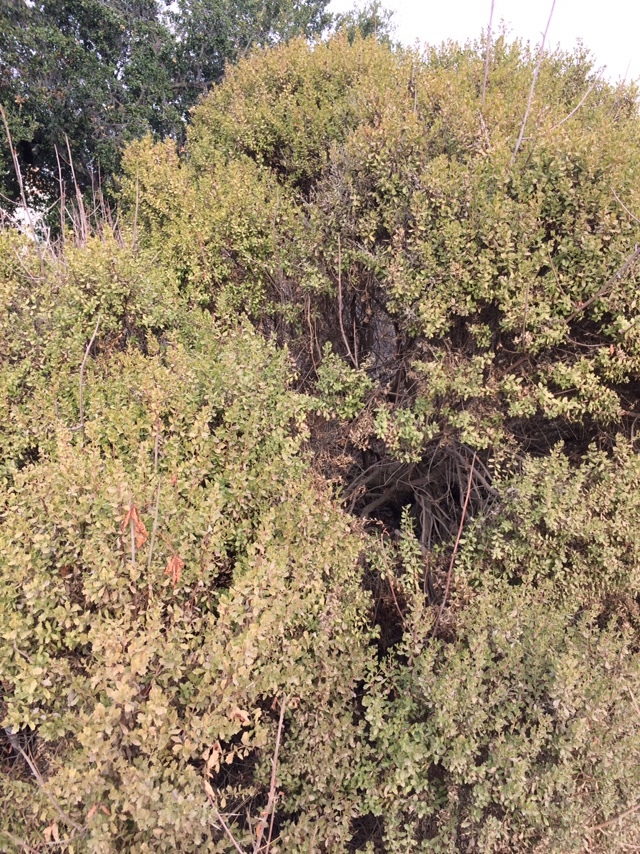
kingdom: Plantae
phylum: Tracheophyta
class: Magnoliopsida
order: Asterales
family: Asteraceae
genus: Baccharis
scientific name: Baccharis pilularis
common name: Coyotebrush
